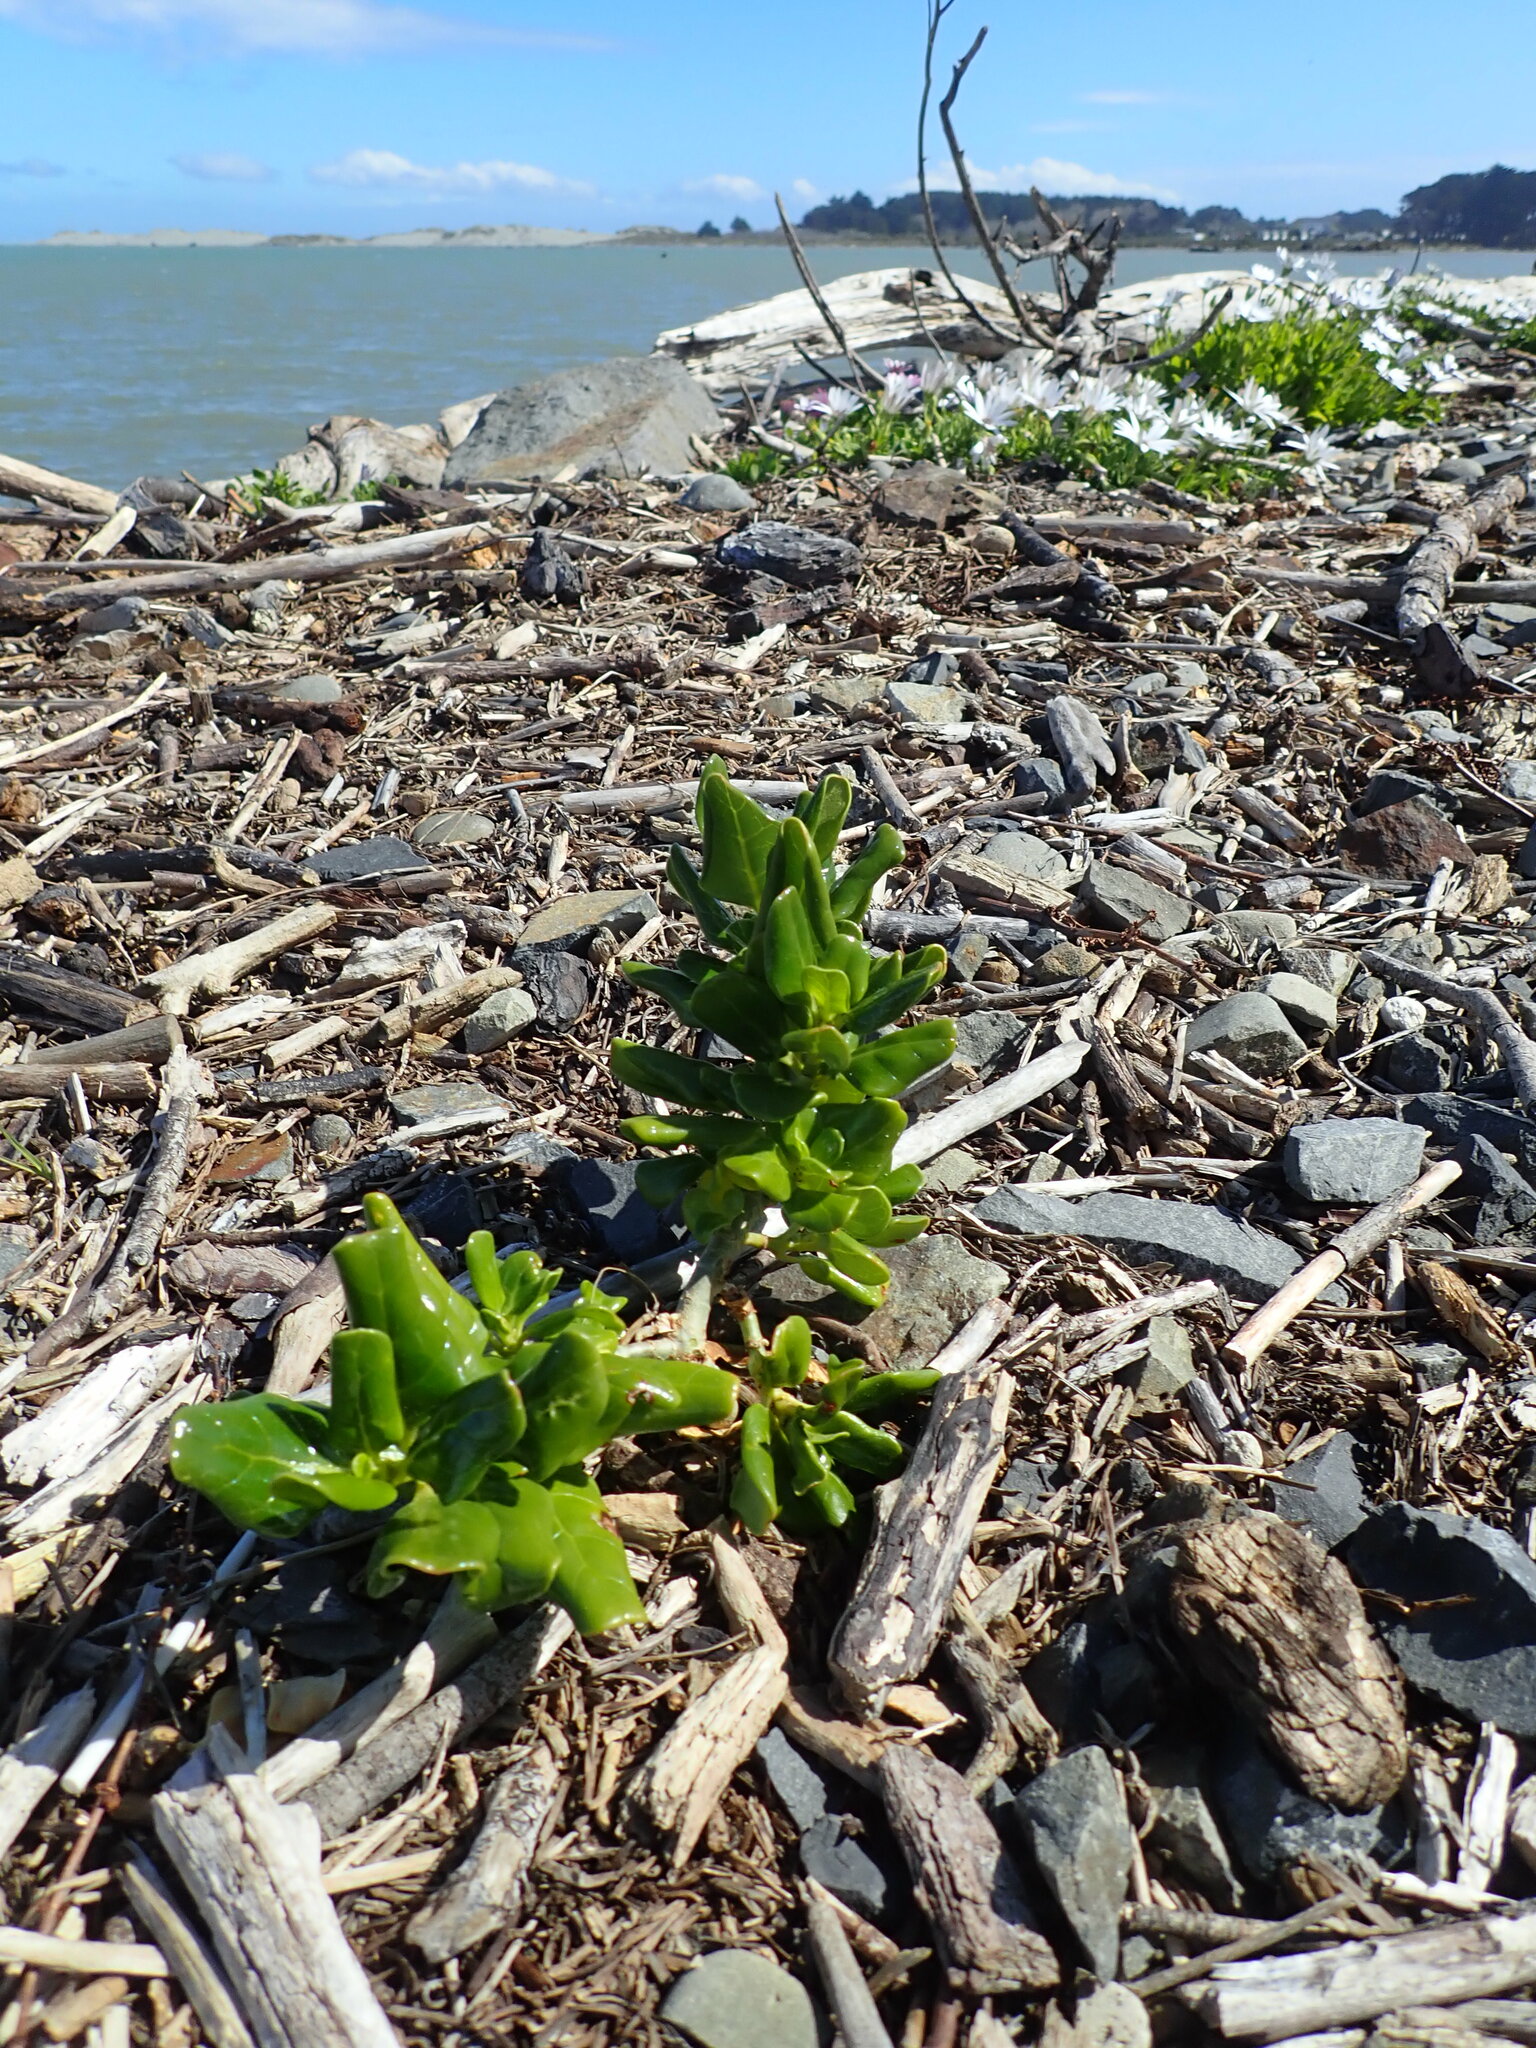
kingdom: Plantae
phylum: Tracheophyta
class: Magnoliopsida
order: Gentianales
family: Rubiaceae
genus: Coprosma
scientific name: Coprosma repens
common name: Tree bedstraw
